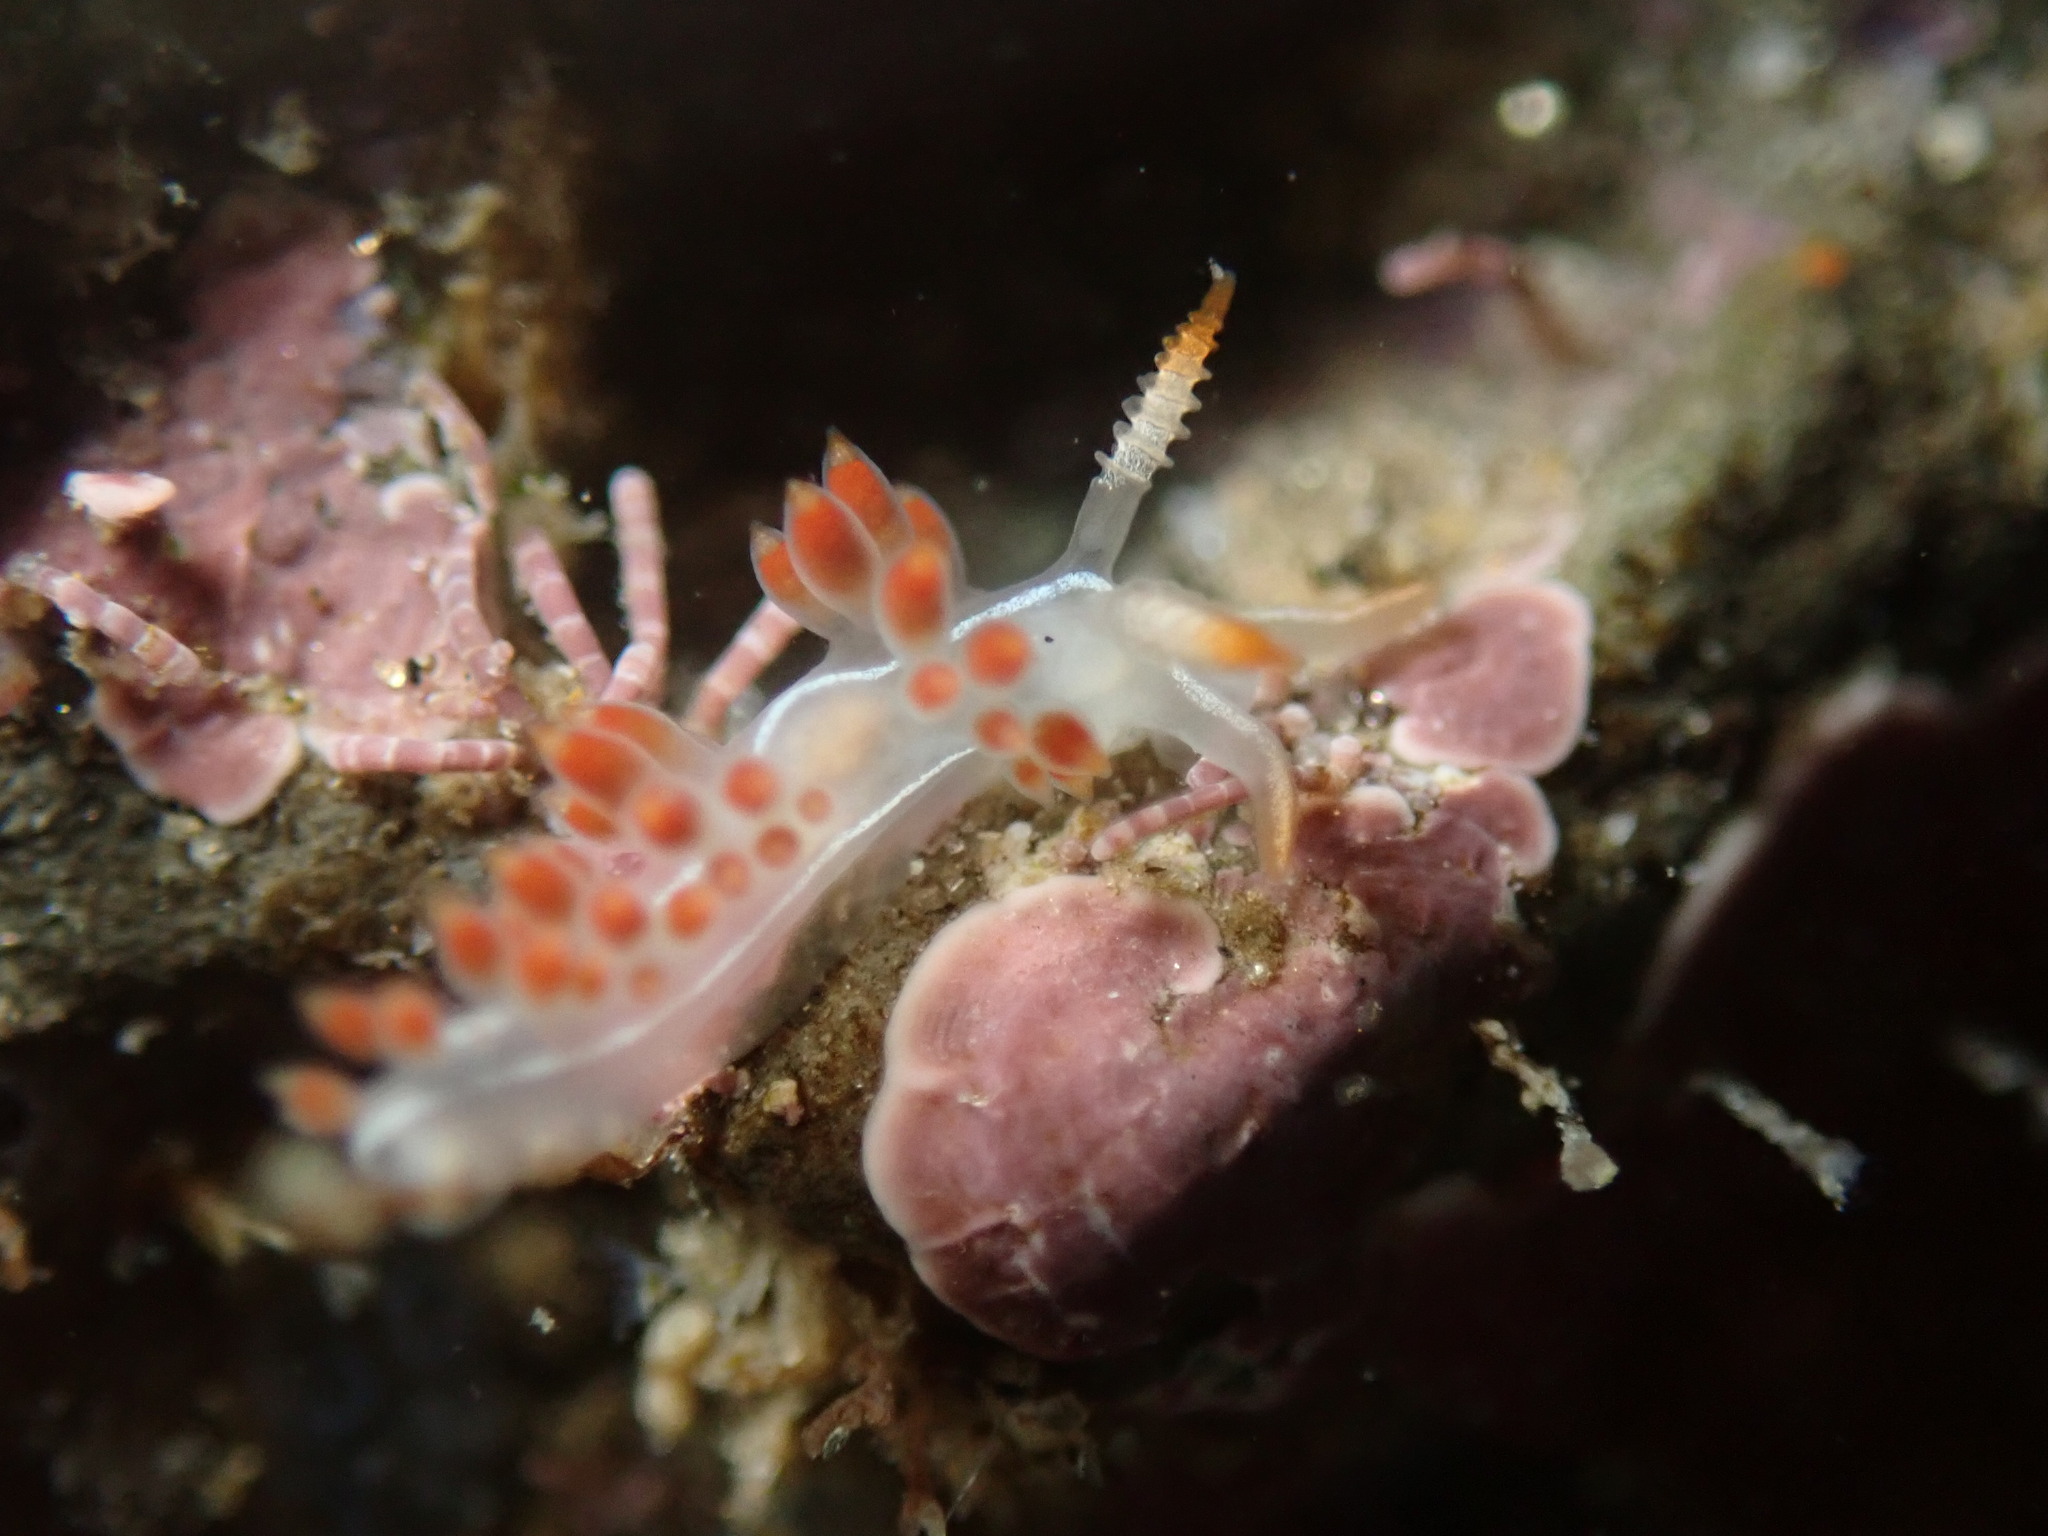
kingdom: Animalia
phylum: Mollusca
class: Gastropoda
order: Nudibranchia
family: Coryphellidae
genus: Coryphella
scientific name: Coryphella trilineata
